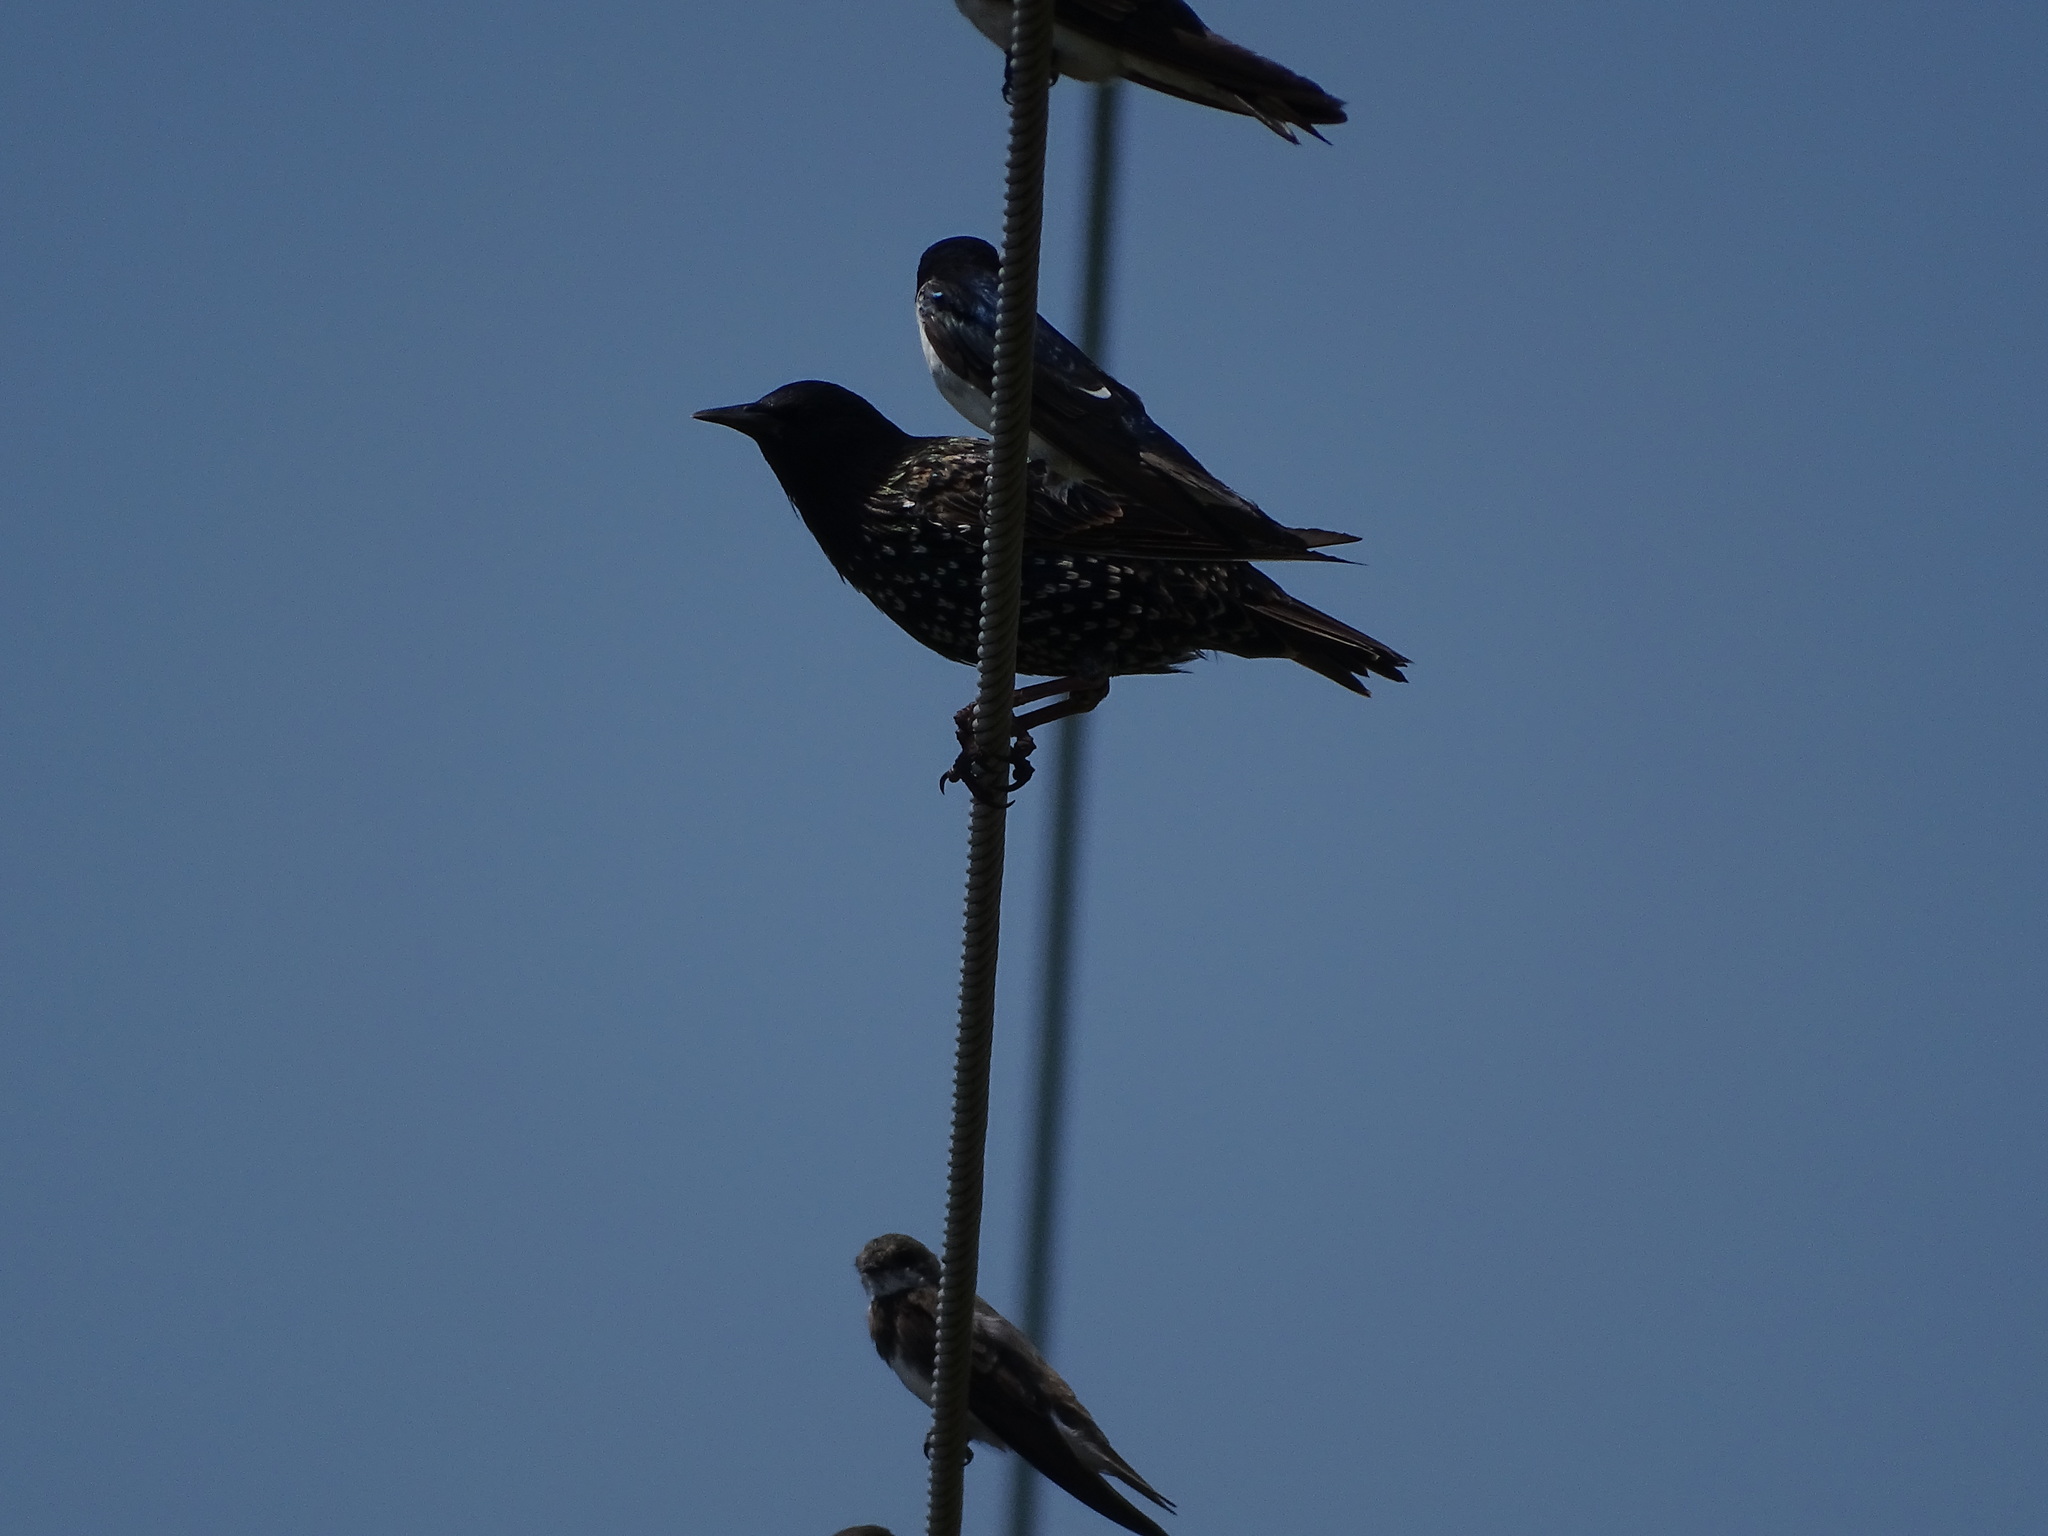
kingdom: Animalia
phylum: Chordata
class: Aves
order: Passeriformes
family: Sturnidae
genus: Sturnus
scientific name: Sturnus vulgaris
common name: Common starling
